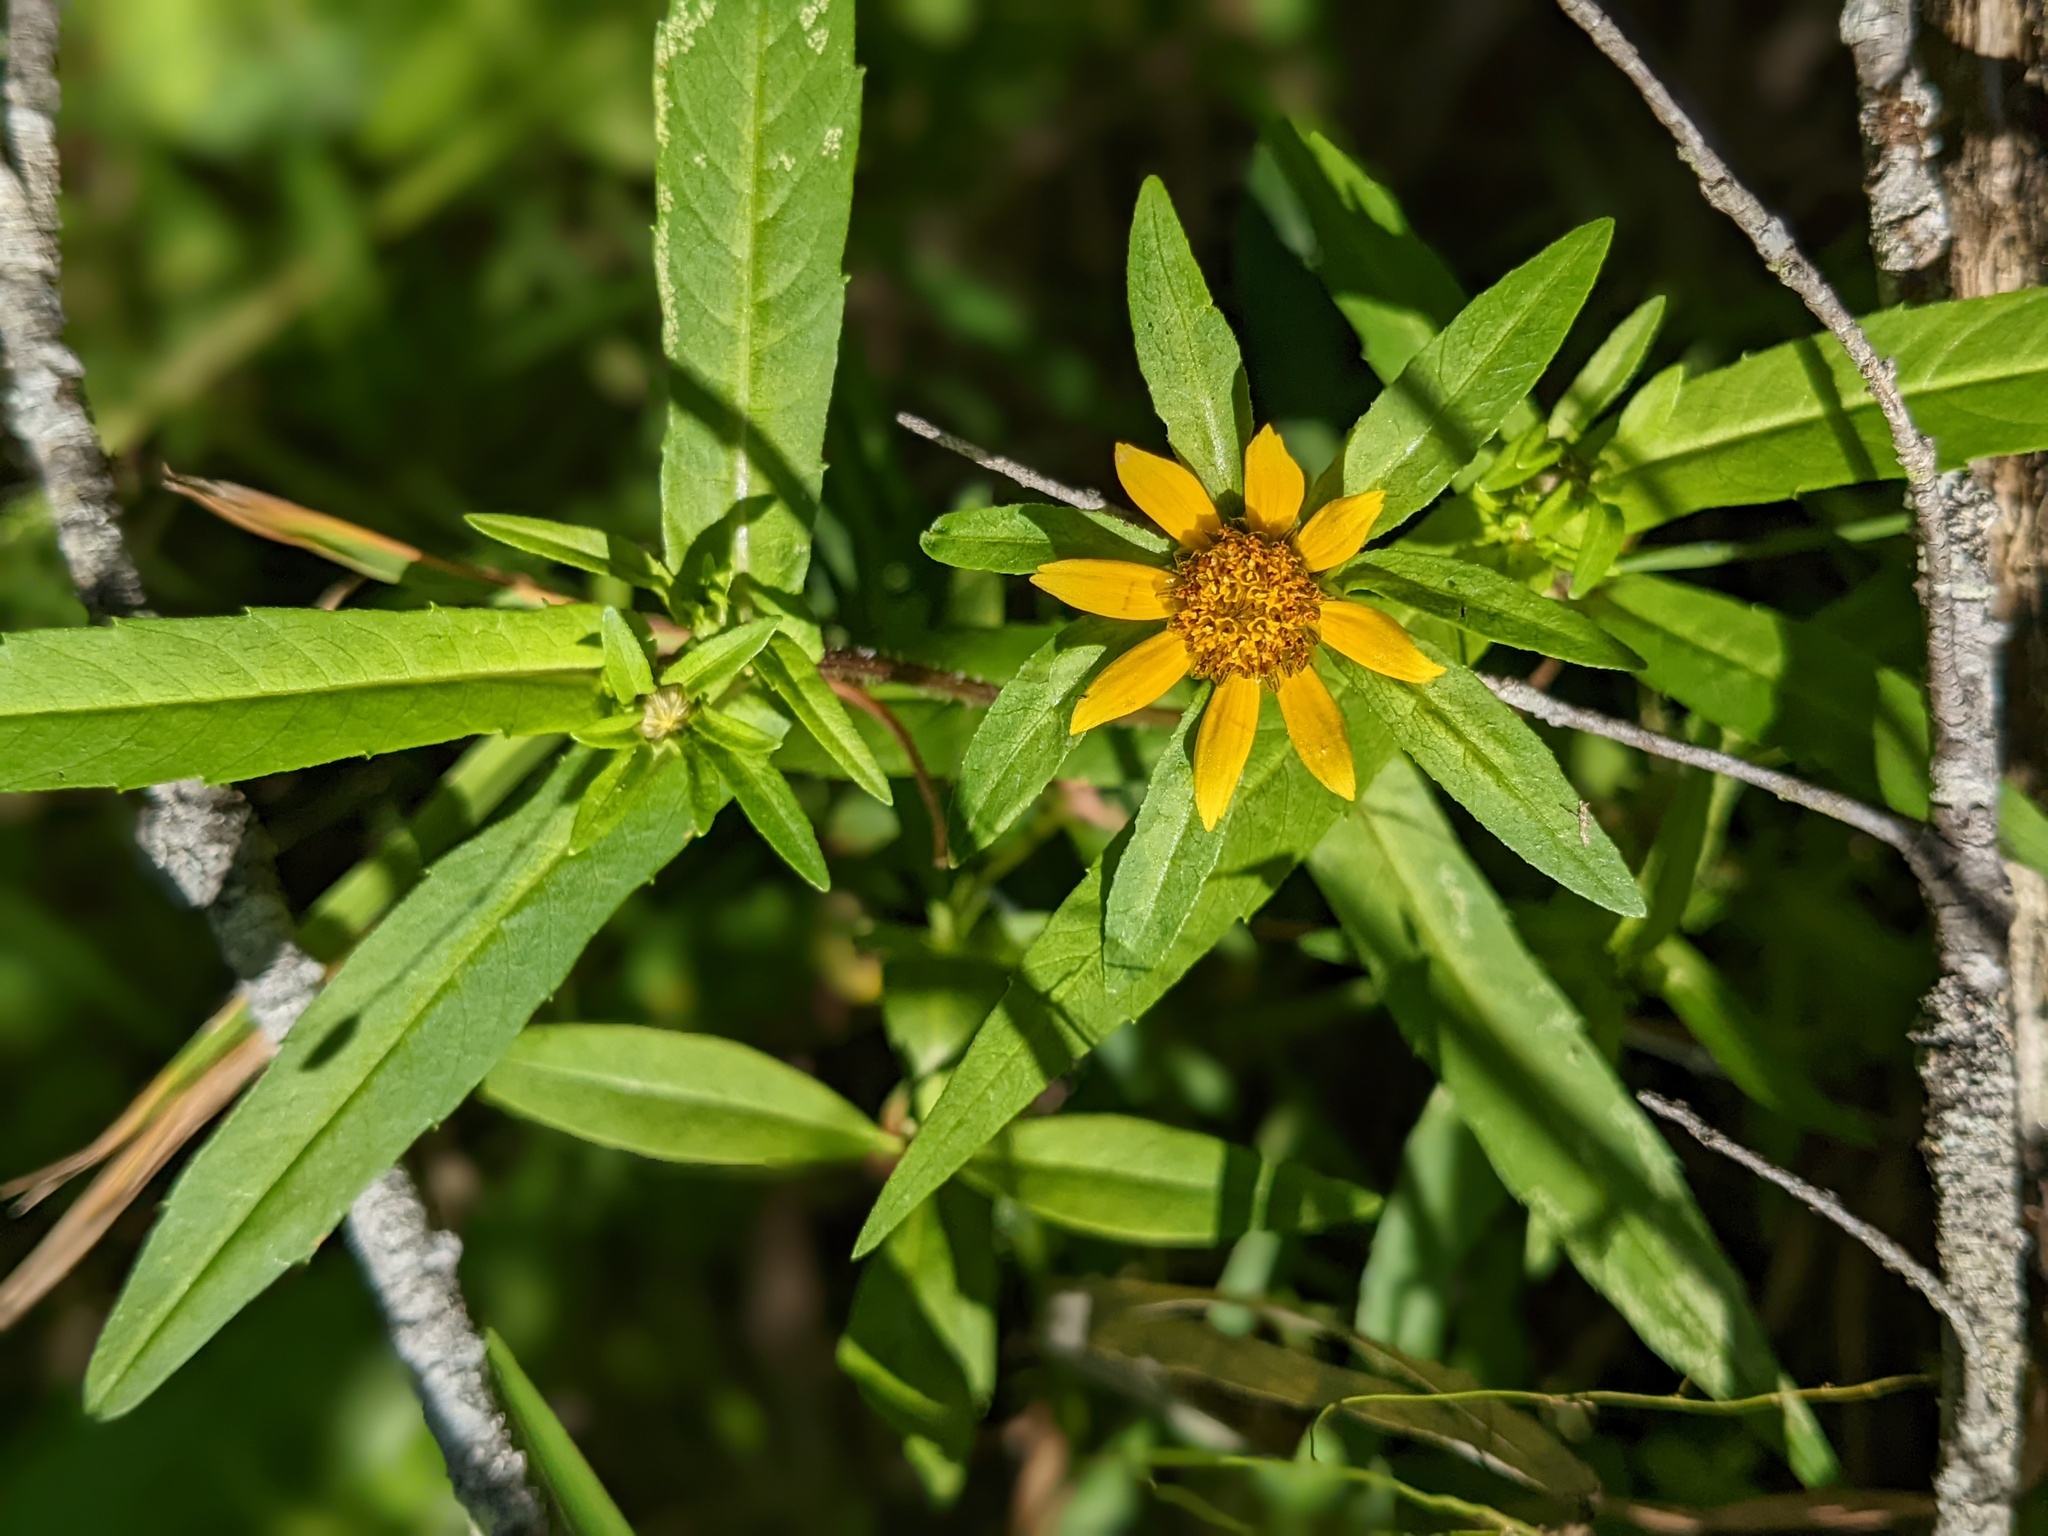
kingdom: Plantae
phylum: Tracheophyta
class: Magnoliopsida
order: Asterales
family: Asteraceae
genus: Bidens
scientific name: Bidens cernua
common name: Nodding bur-marigold
